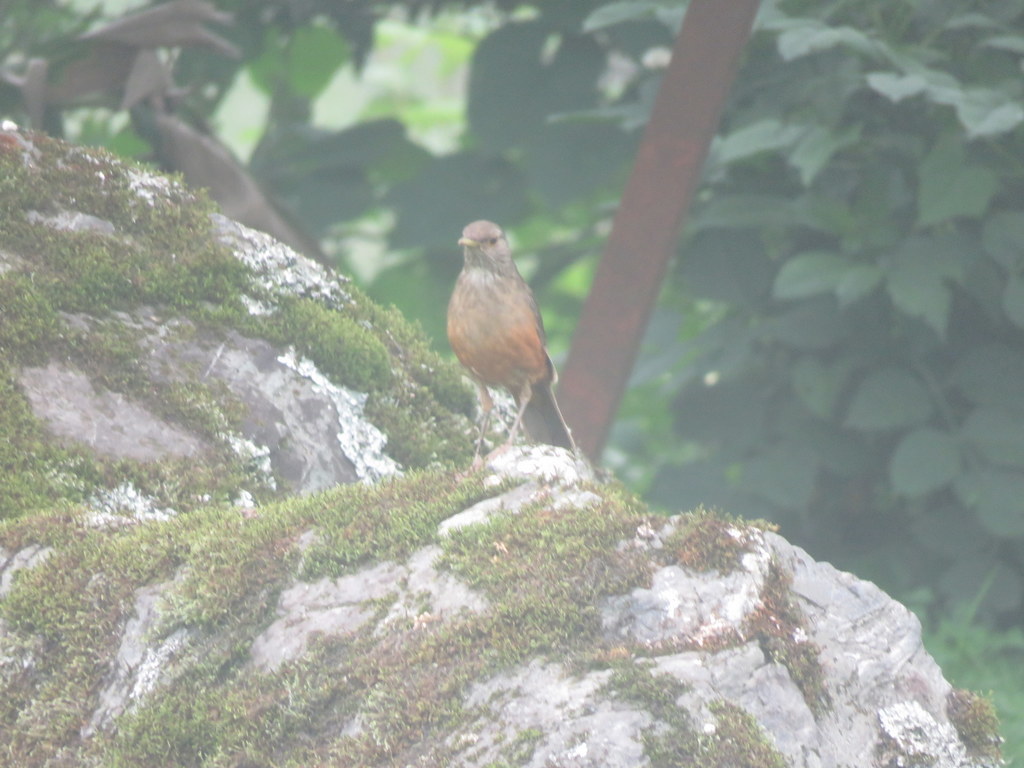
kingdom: Animalia
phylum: Chordata
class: Aves
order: Passeriformes
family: Turdidae
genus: Turdus
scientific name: Turdus rufiventris
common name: Rufous-bellied thrush
